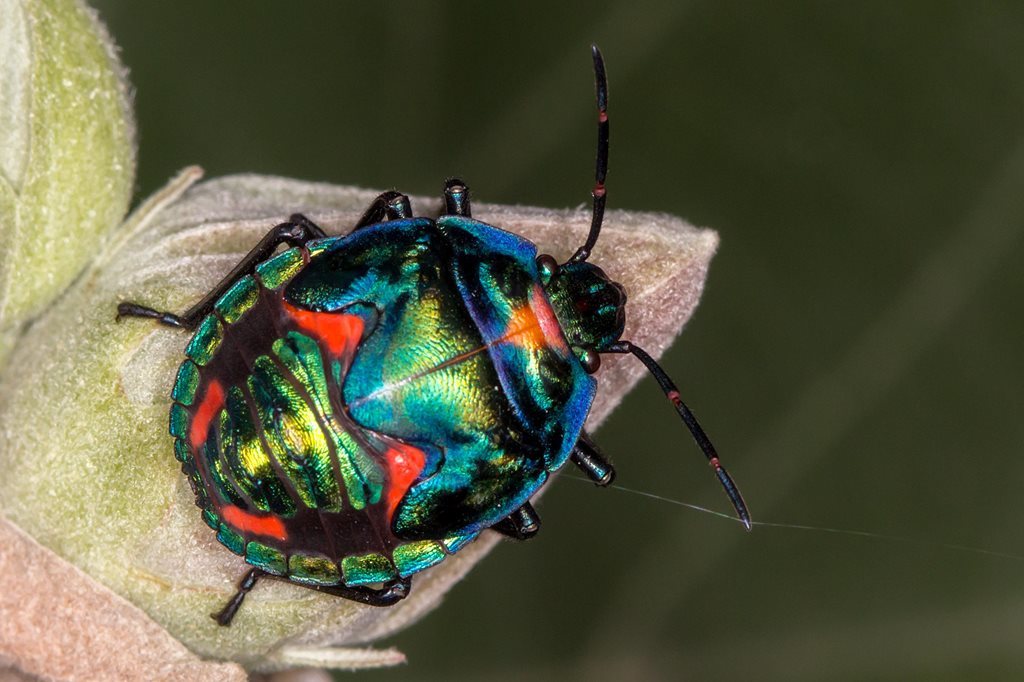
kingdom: Animalia
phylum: Arthropoda
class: Insecta
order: Hemiptera
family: Scutelleridae
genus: Tectocoris
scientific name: Tectocoris diophthalmus
